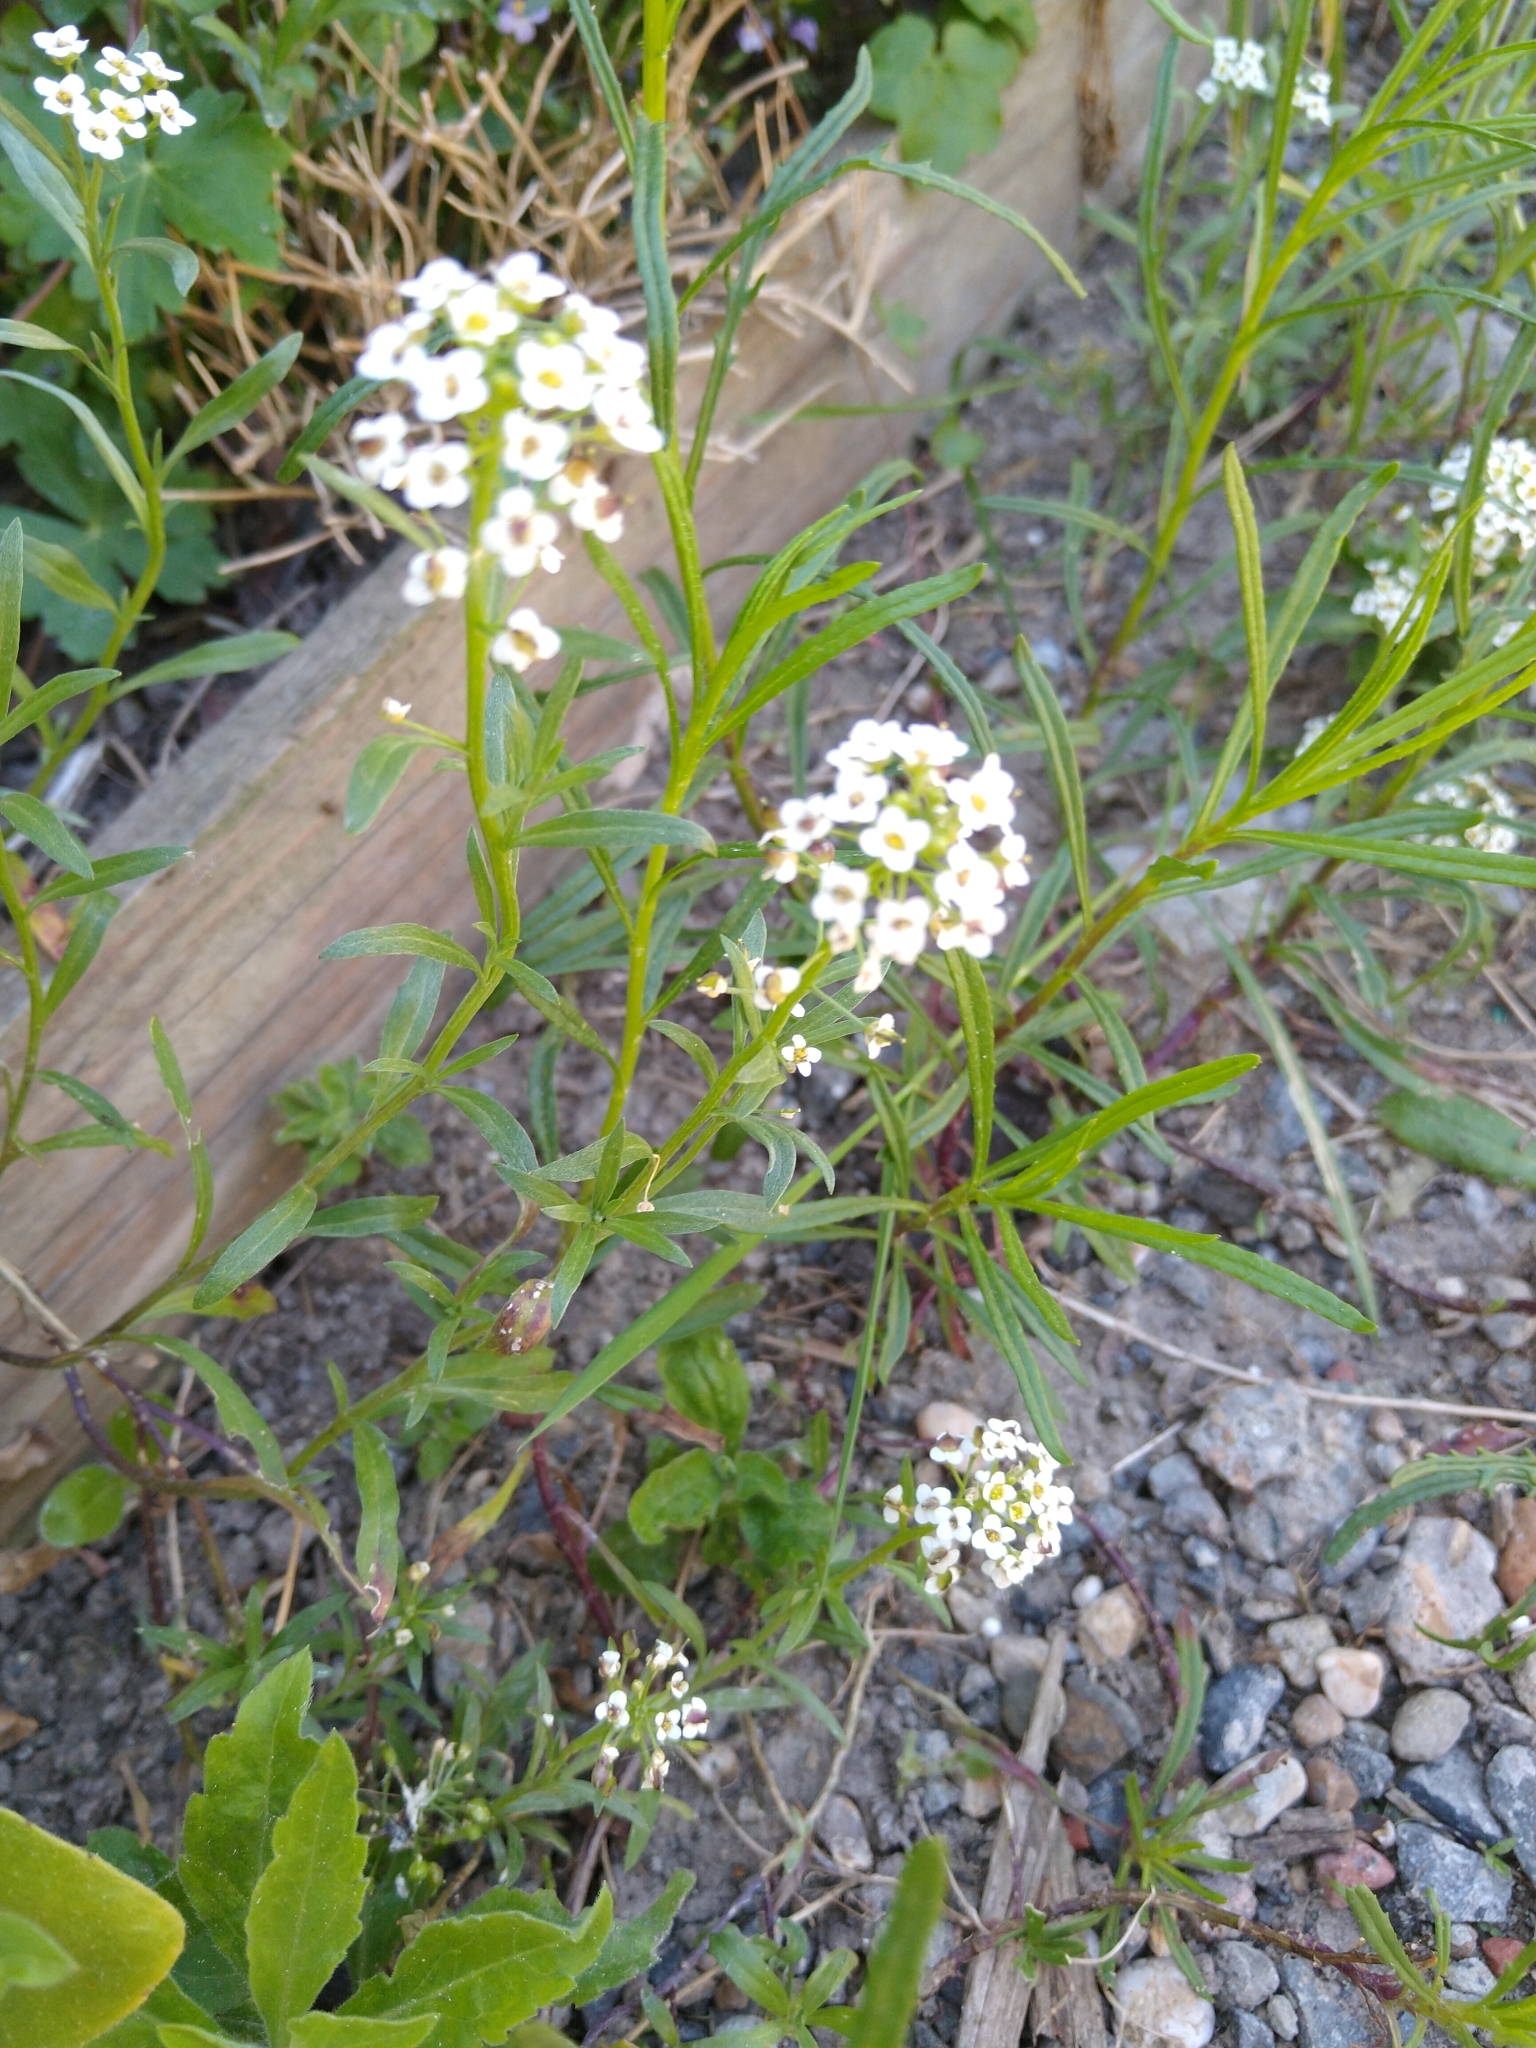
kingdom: Plantae
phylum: Tracheophyta
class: Magnoliopsida
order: Brassicales
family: Brassicaceae
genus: Lobularia
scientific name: Lobularia maritima
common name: Sweet alison
